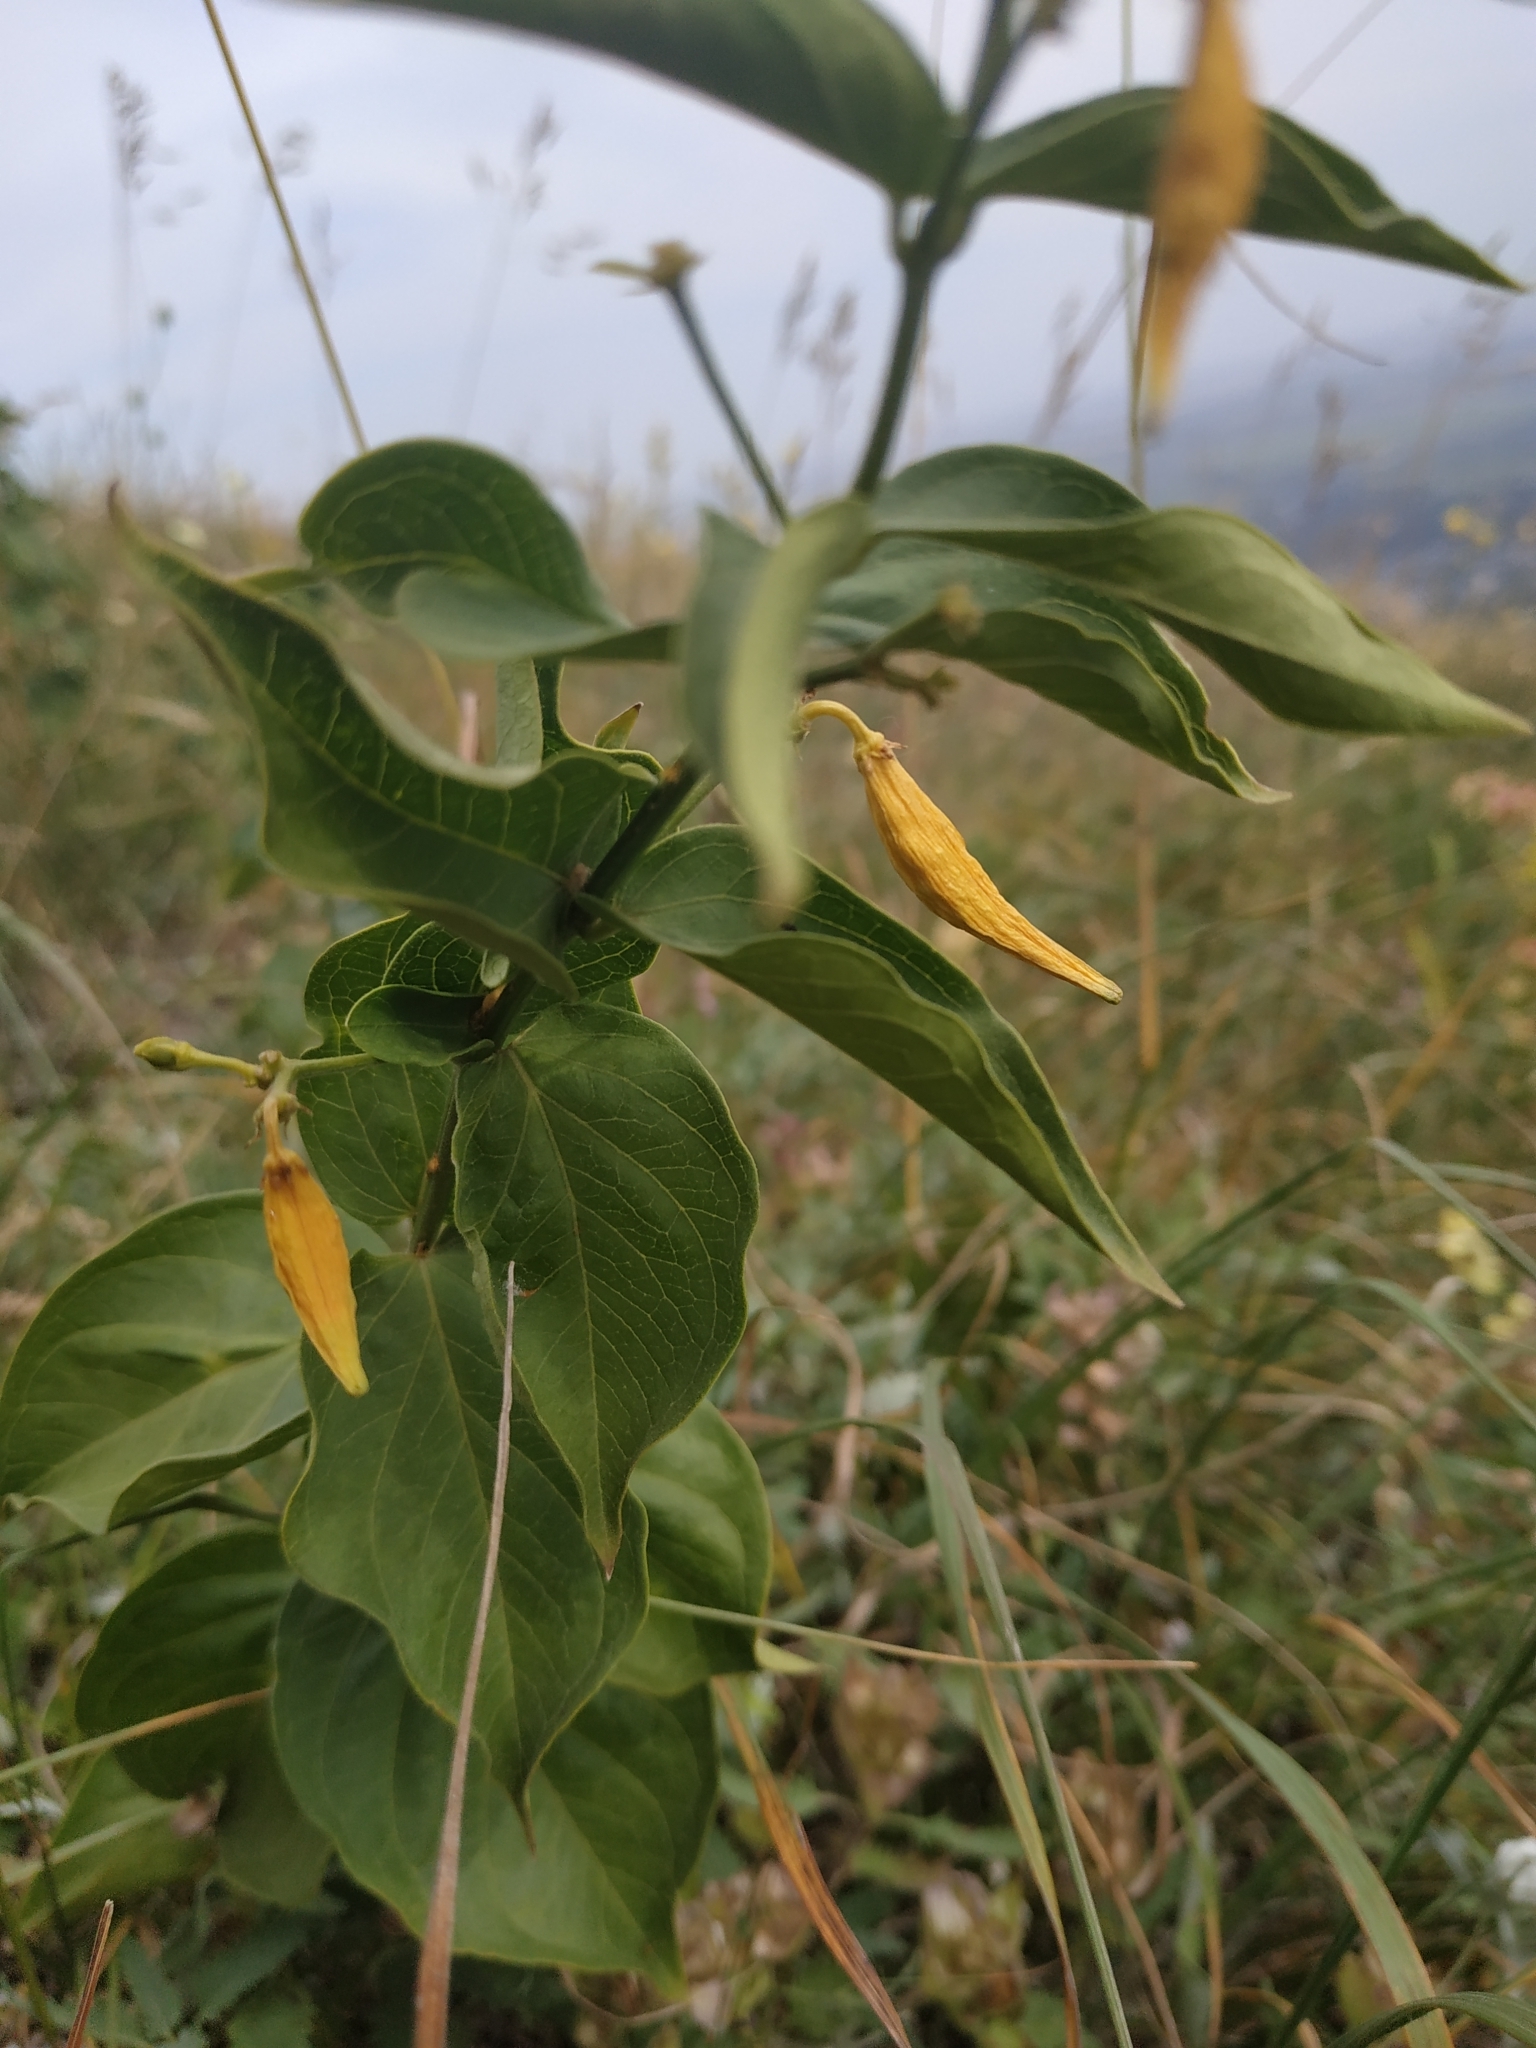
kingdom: Plantae
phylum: Tracheophyta
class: Magnoliopsida
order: Gentianales
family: Apocynaceae
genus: Vincetoxicum
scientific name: Vincetoxicum hirundinaria
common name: White swallowwort
